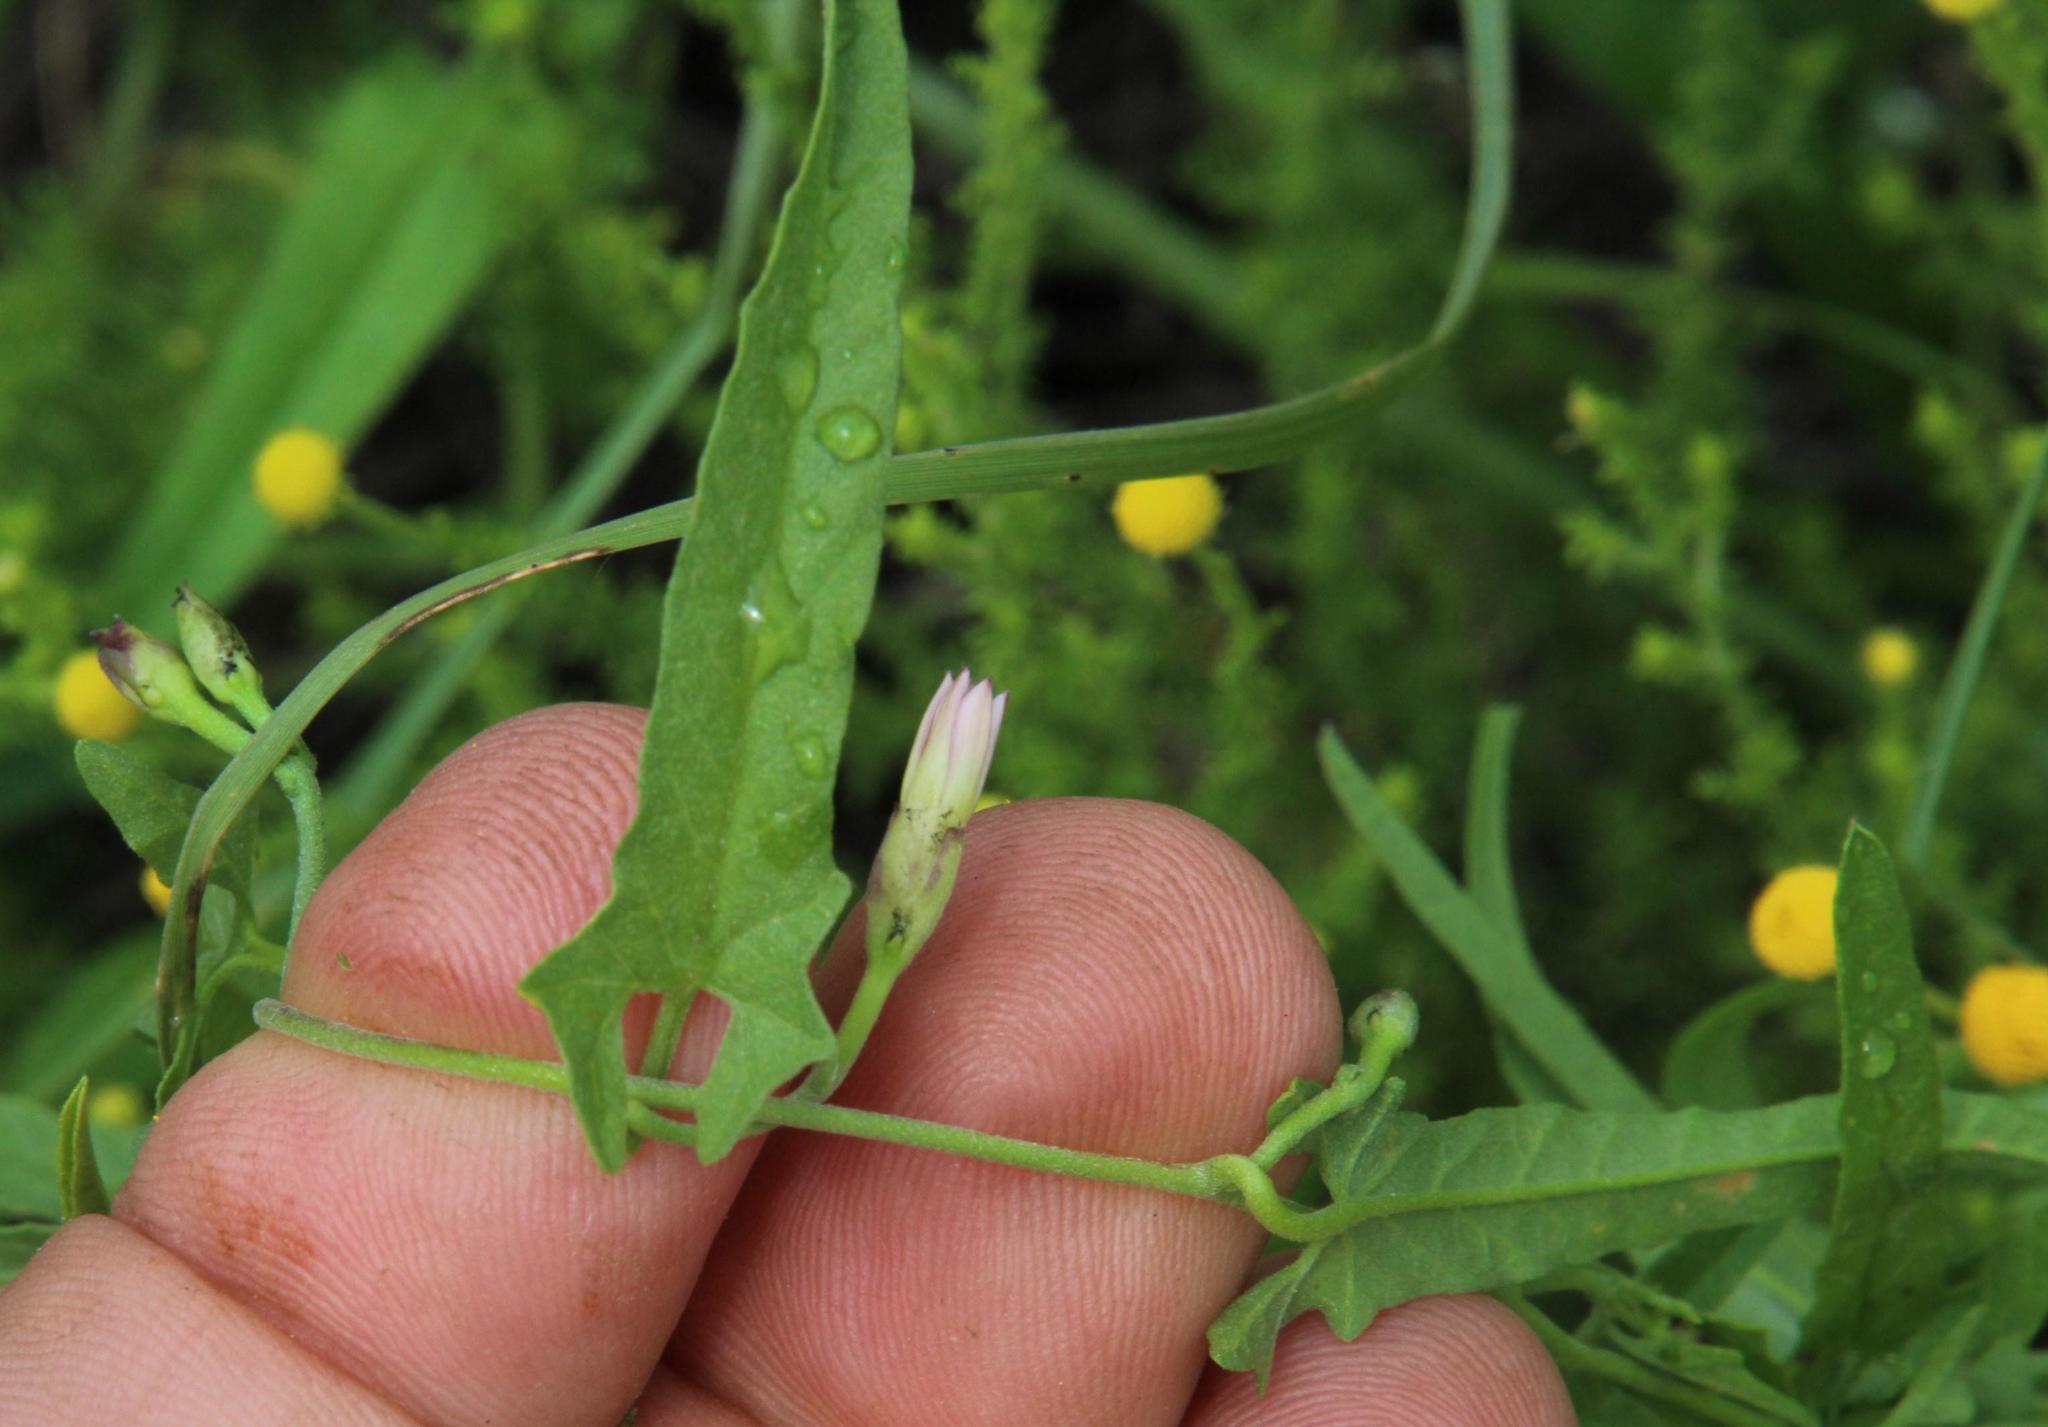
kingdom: Plantae
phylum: Tracheophyta
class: Magnoliopsida
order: Solanales
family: Convolvulaceae
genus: Convolvulus
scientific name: Convolvulus sagittatus
